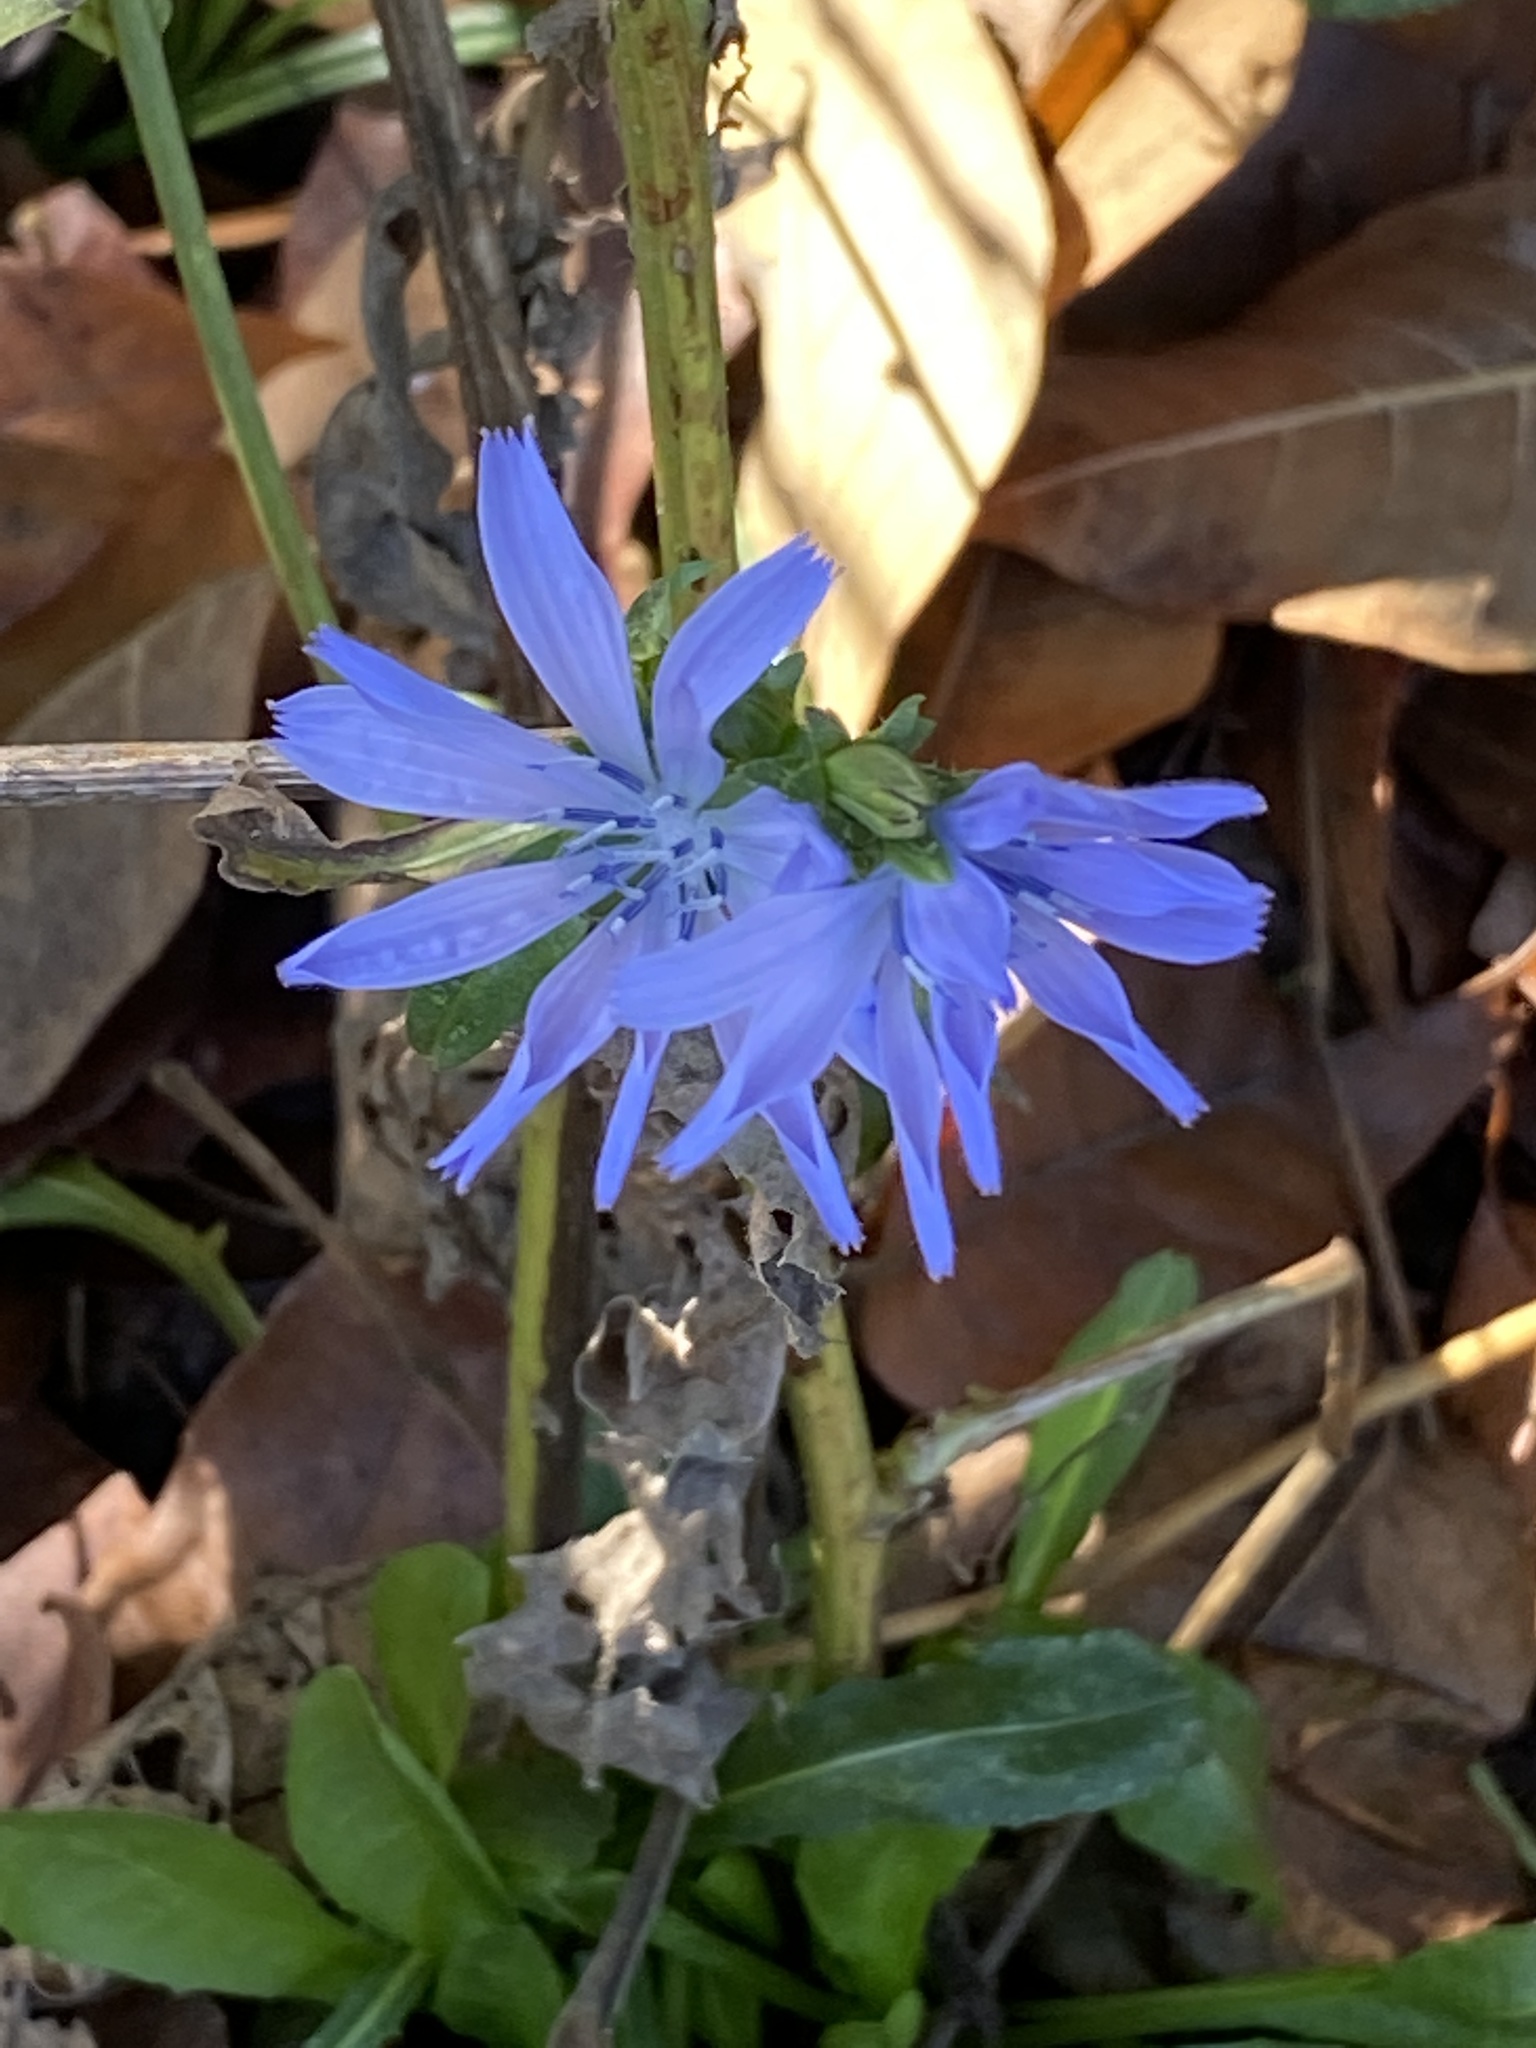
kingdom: Plantae
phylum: Tracheophyta
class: Magnoliopsida
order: Asterales
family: Asteraceae
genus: Cichorium
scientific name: Cichorium intybus
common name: Chicory
